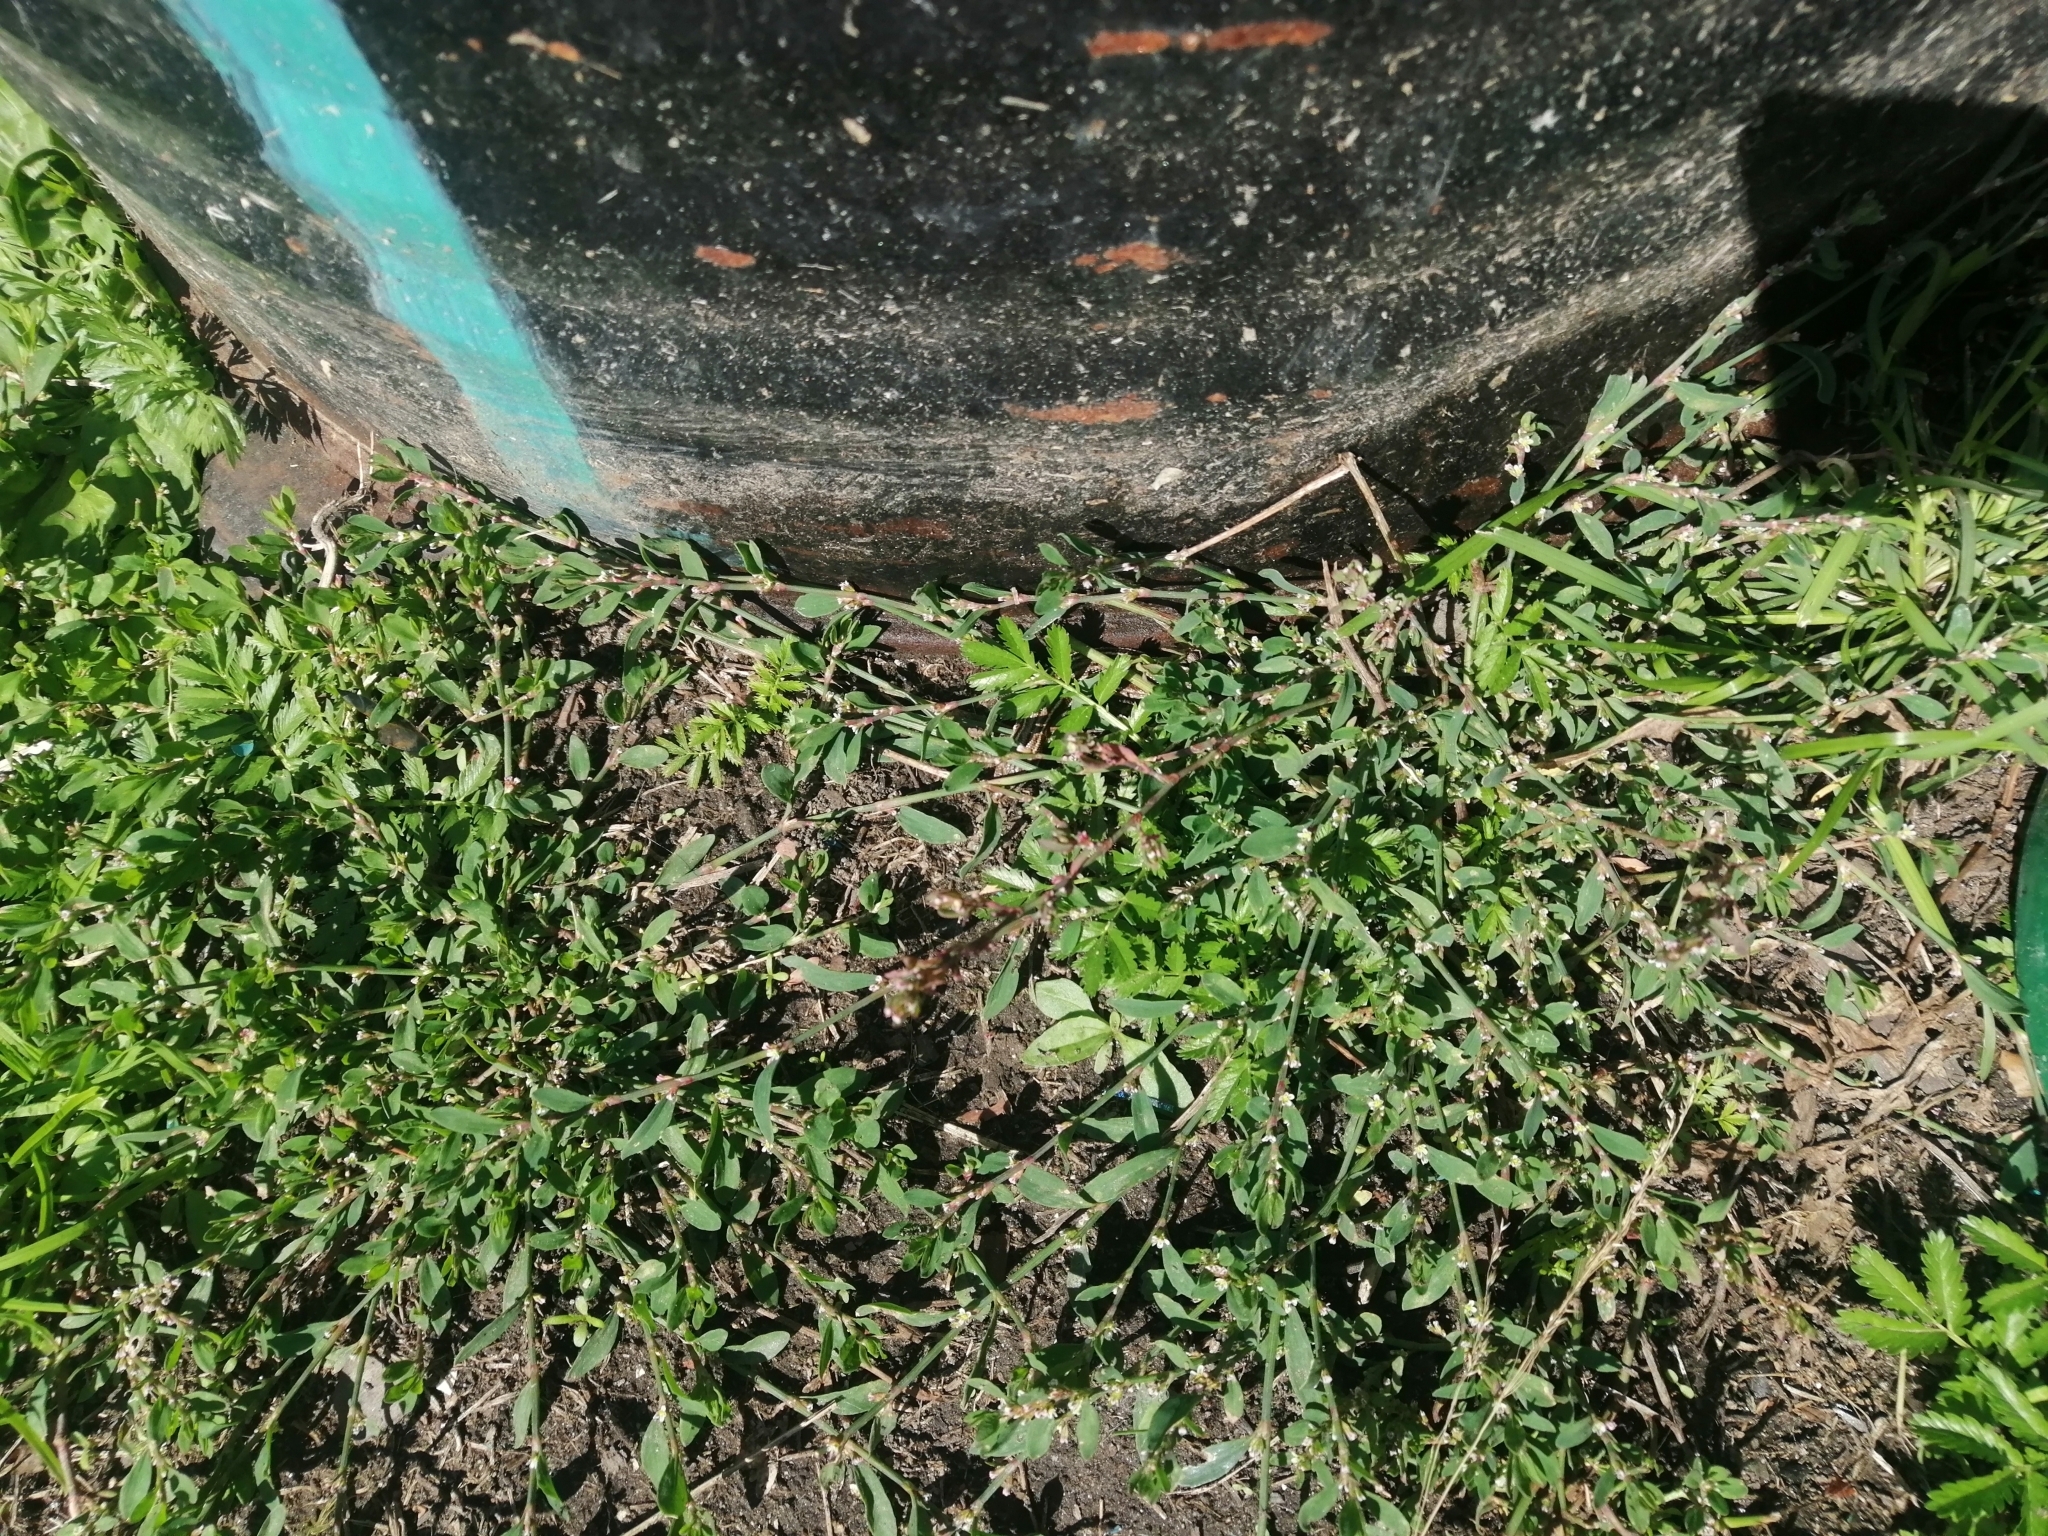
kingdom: Animalia
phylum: Chordata
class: Squamata
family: Lacertidae
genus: Zootoca
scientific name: Zootoca vivipara
